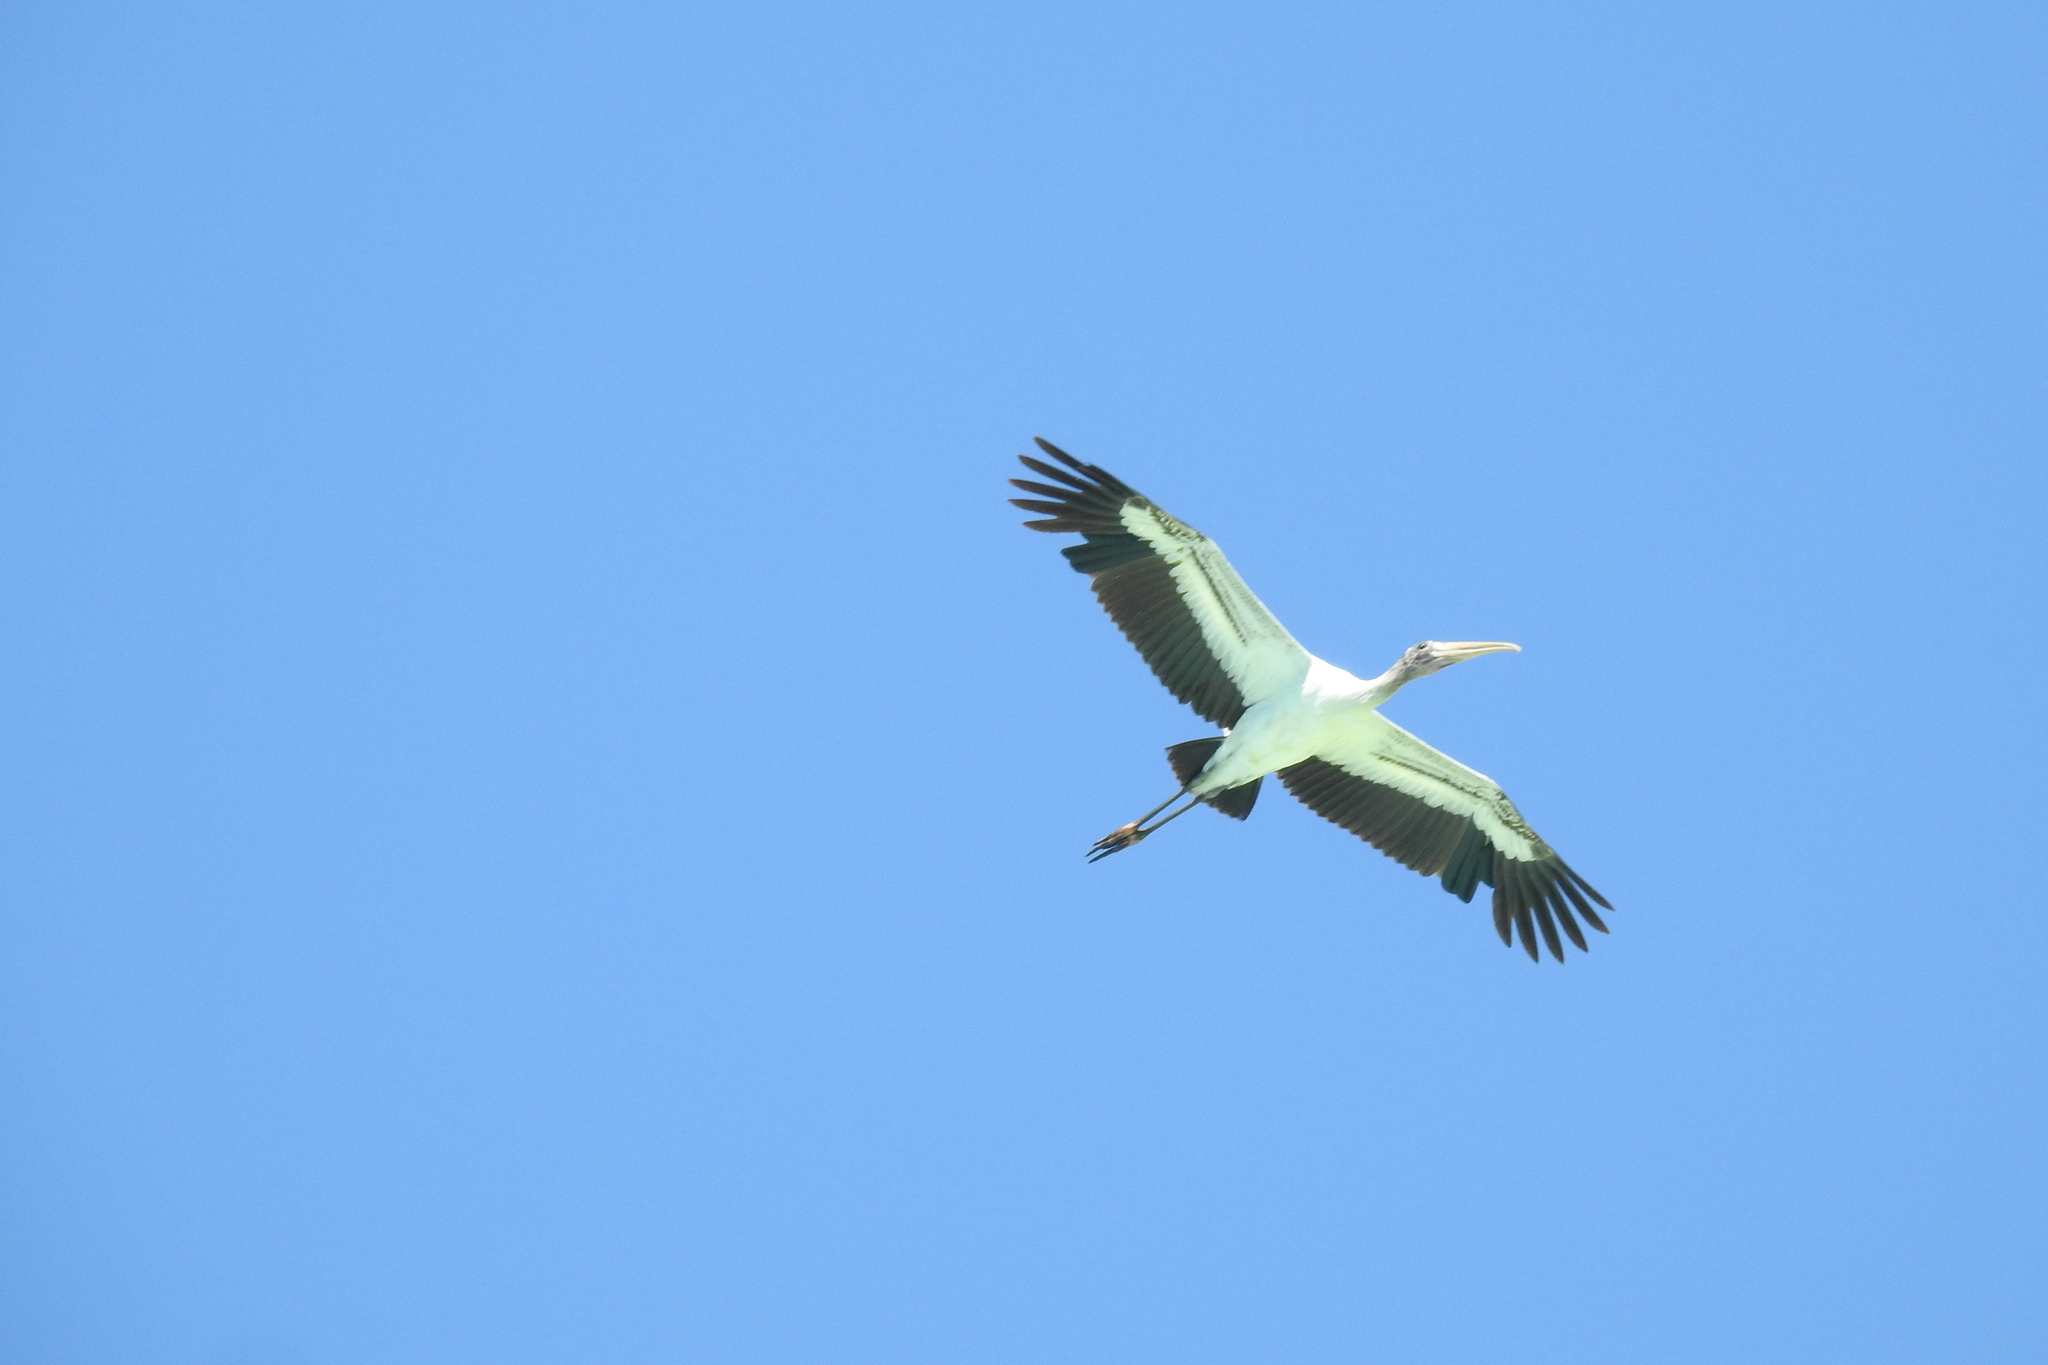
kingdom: Animalia
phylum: Chordata
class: Aves
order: Ciconiiformes
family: Ciconiidae
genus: Mycteria
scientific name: Mycteria americana
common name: Wood stork
